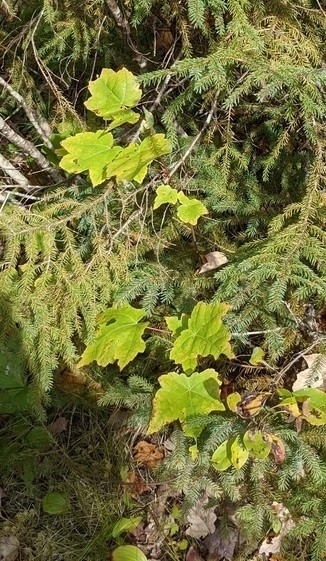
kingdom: Plantae
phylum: Tracheophyta
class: Magnoliopsida
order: Sapindales
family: Sapindaceae
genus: Acer
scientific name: Acer rubrum
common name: Red maple
